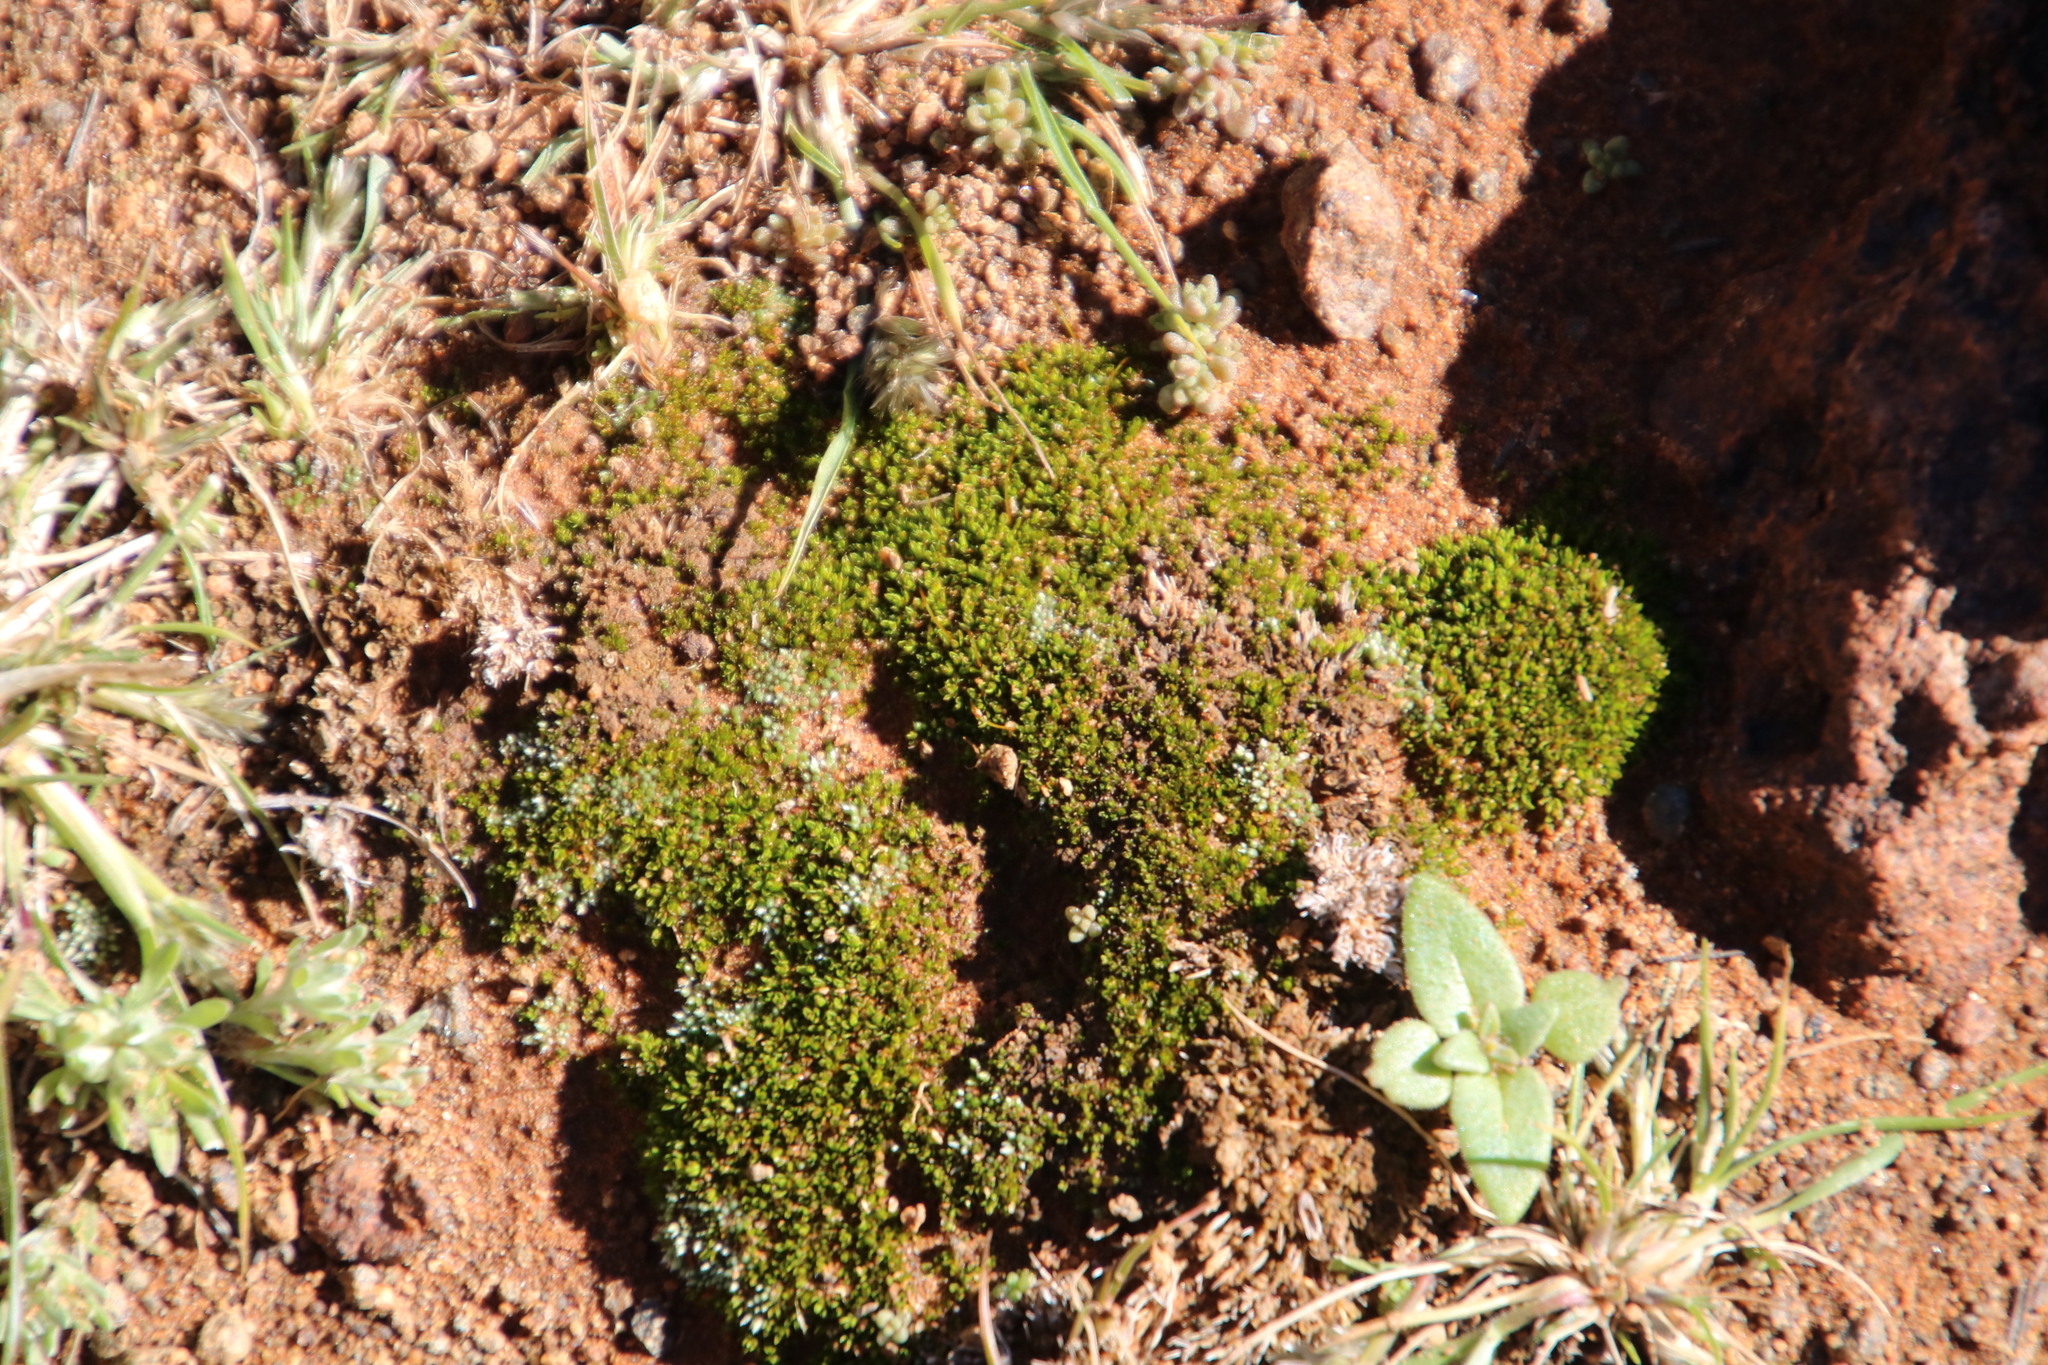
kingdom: Plantae
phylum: Bryophyta
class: Bryopsida
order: Pottiales
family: Pottiaceae
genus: Pterygoneurum
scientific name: Pterygoneurum macleanum
